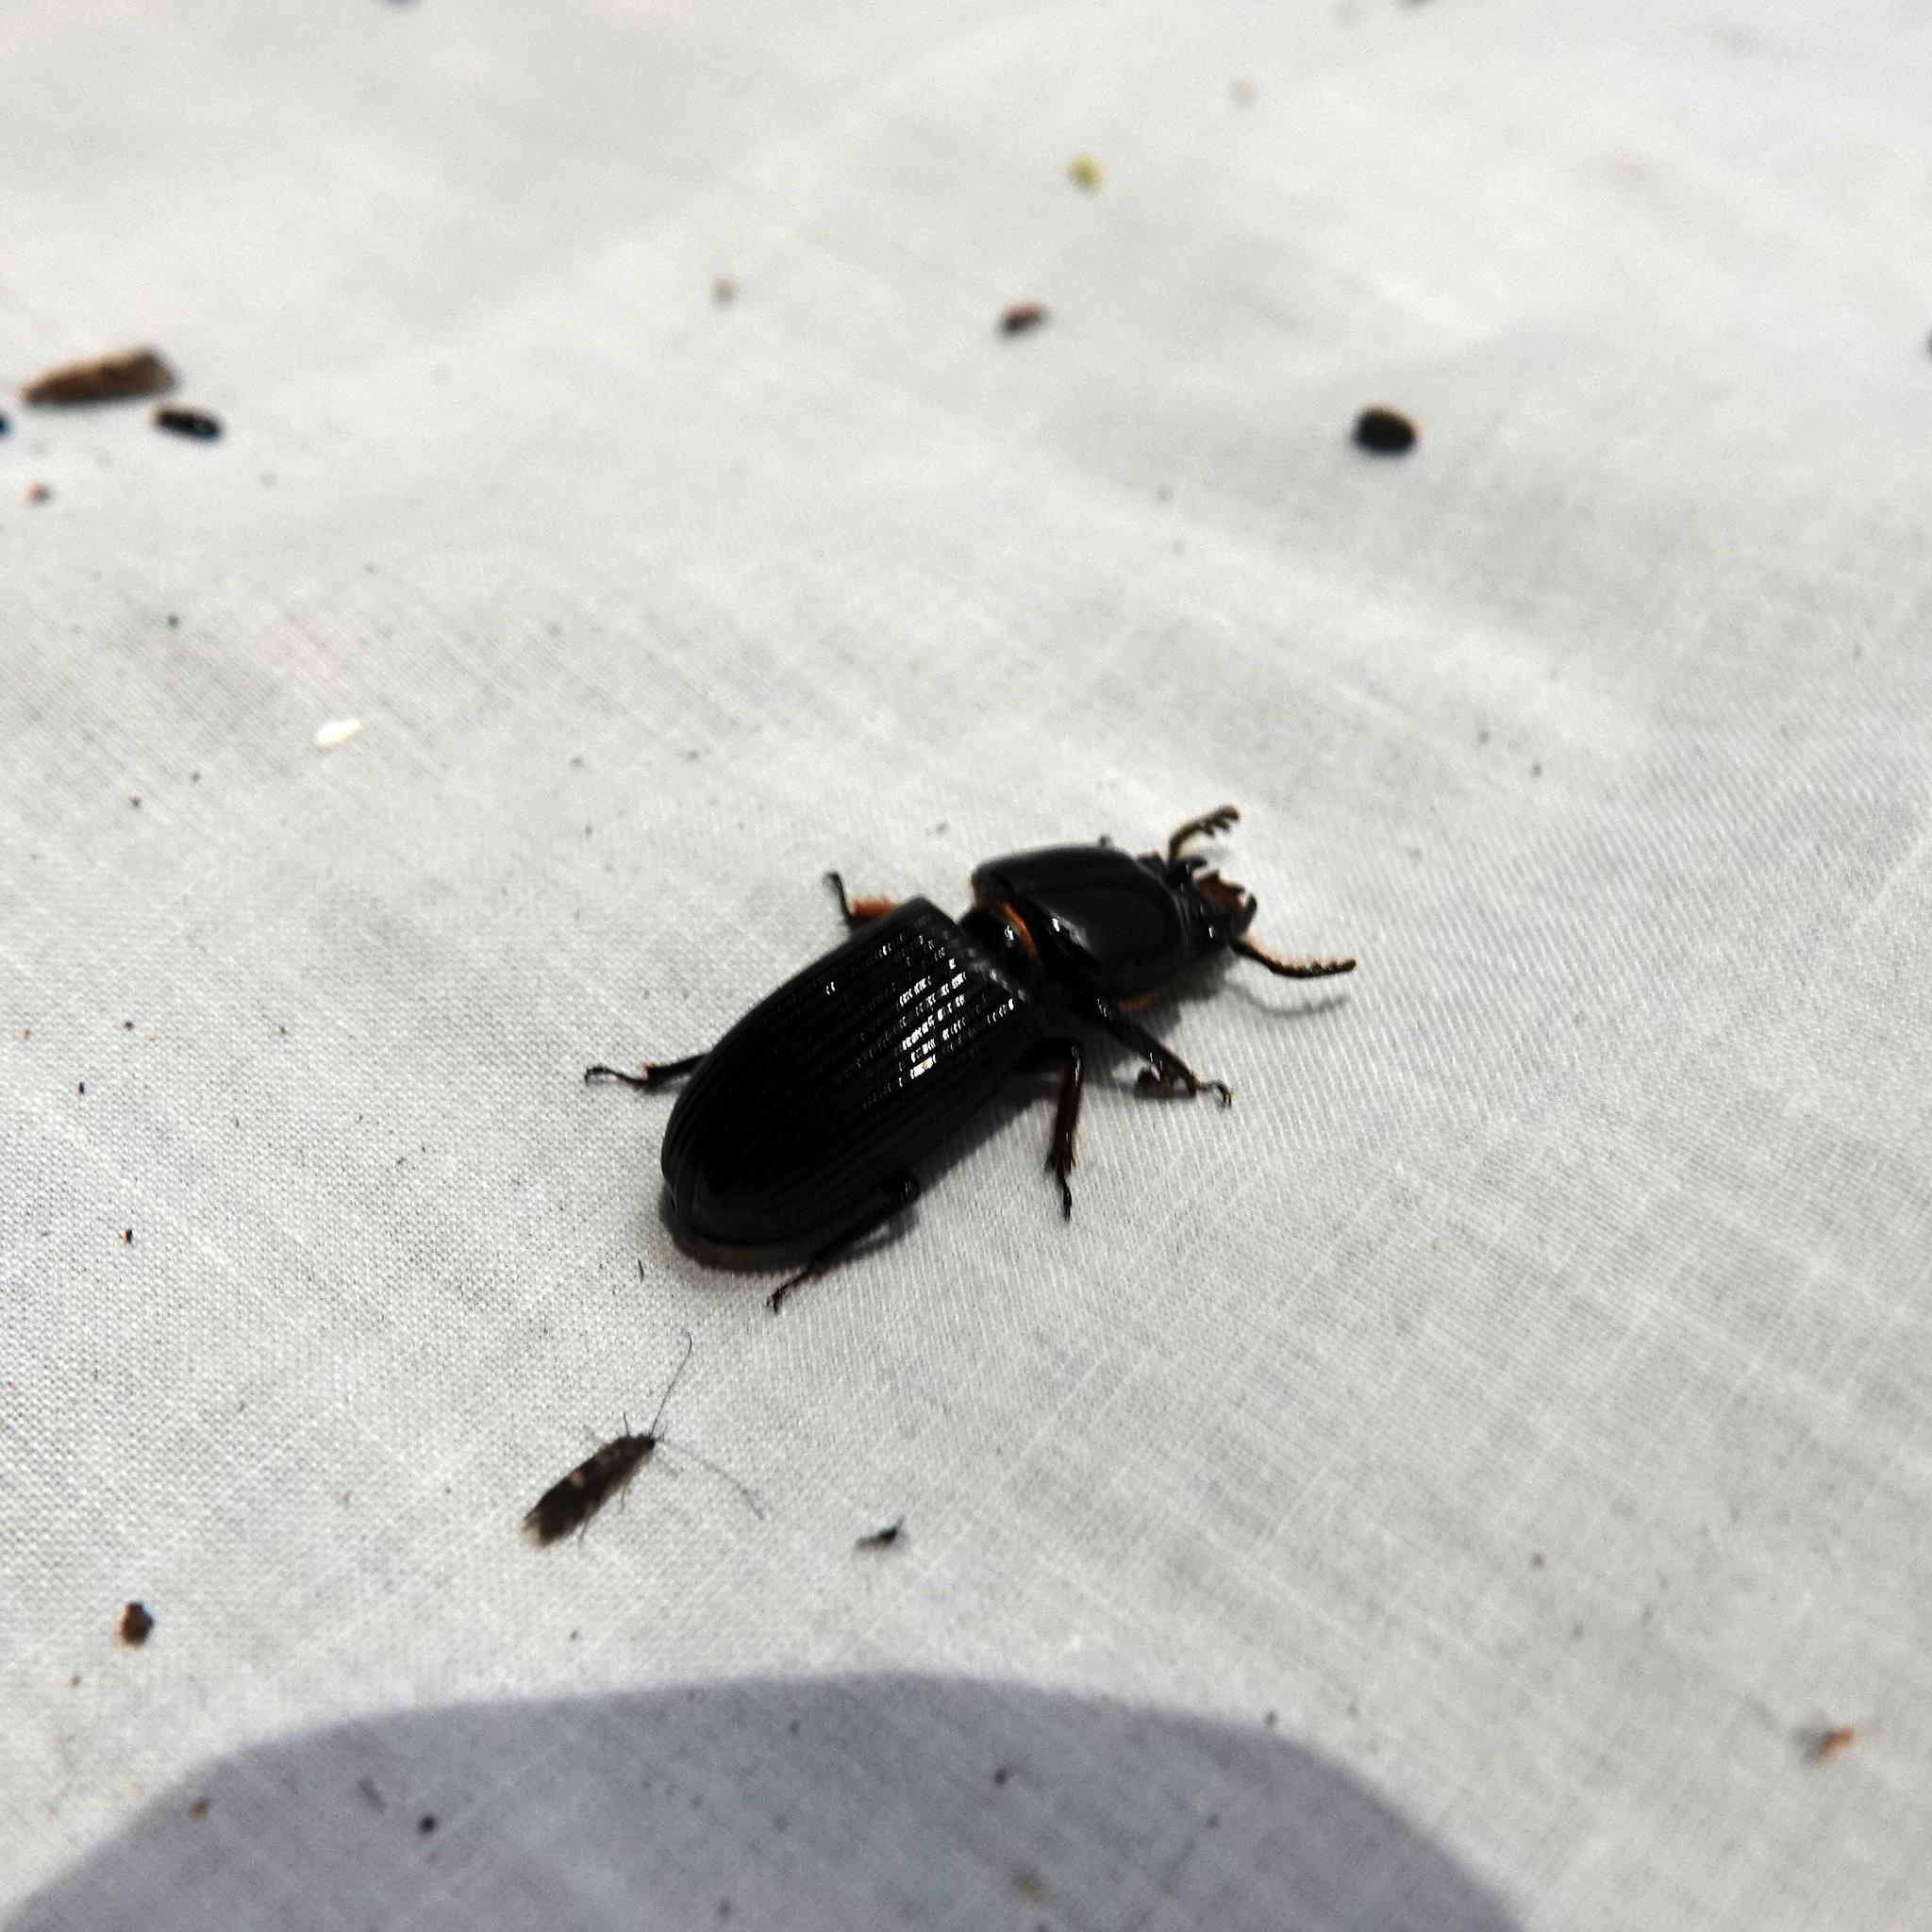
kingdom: Animalia
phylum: Arthropoda
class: Insecta
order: Coleoptera
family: Passalidae
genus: Odontotaenius
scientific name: Odontotaenius disjunctus
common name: Patent leather beetle
